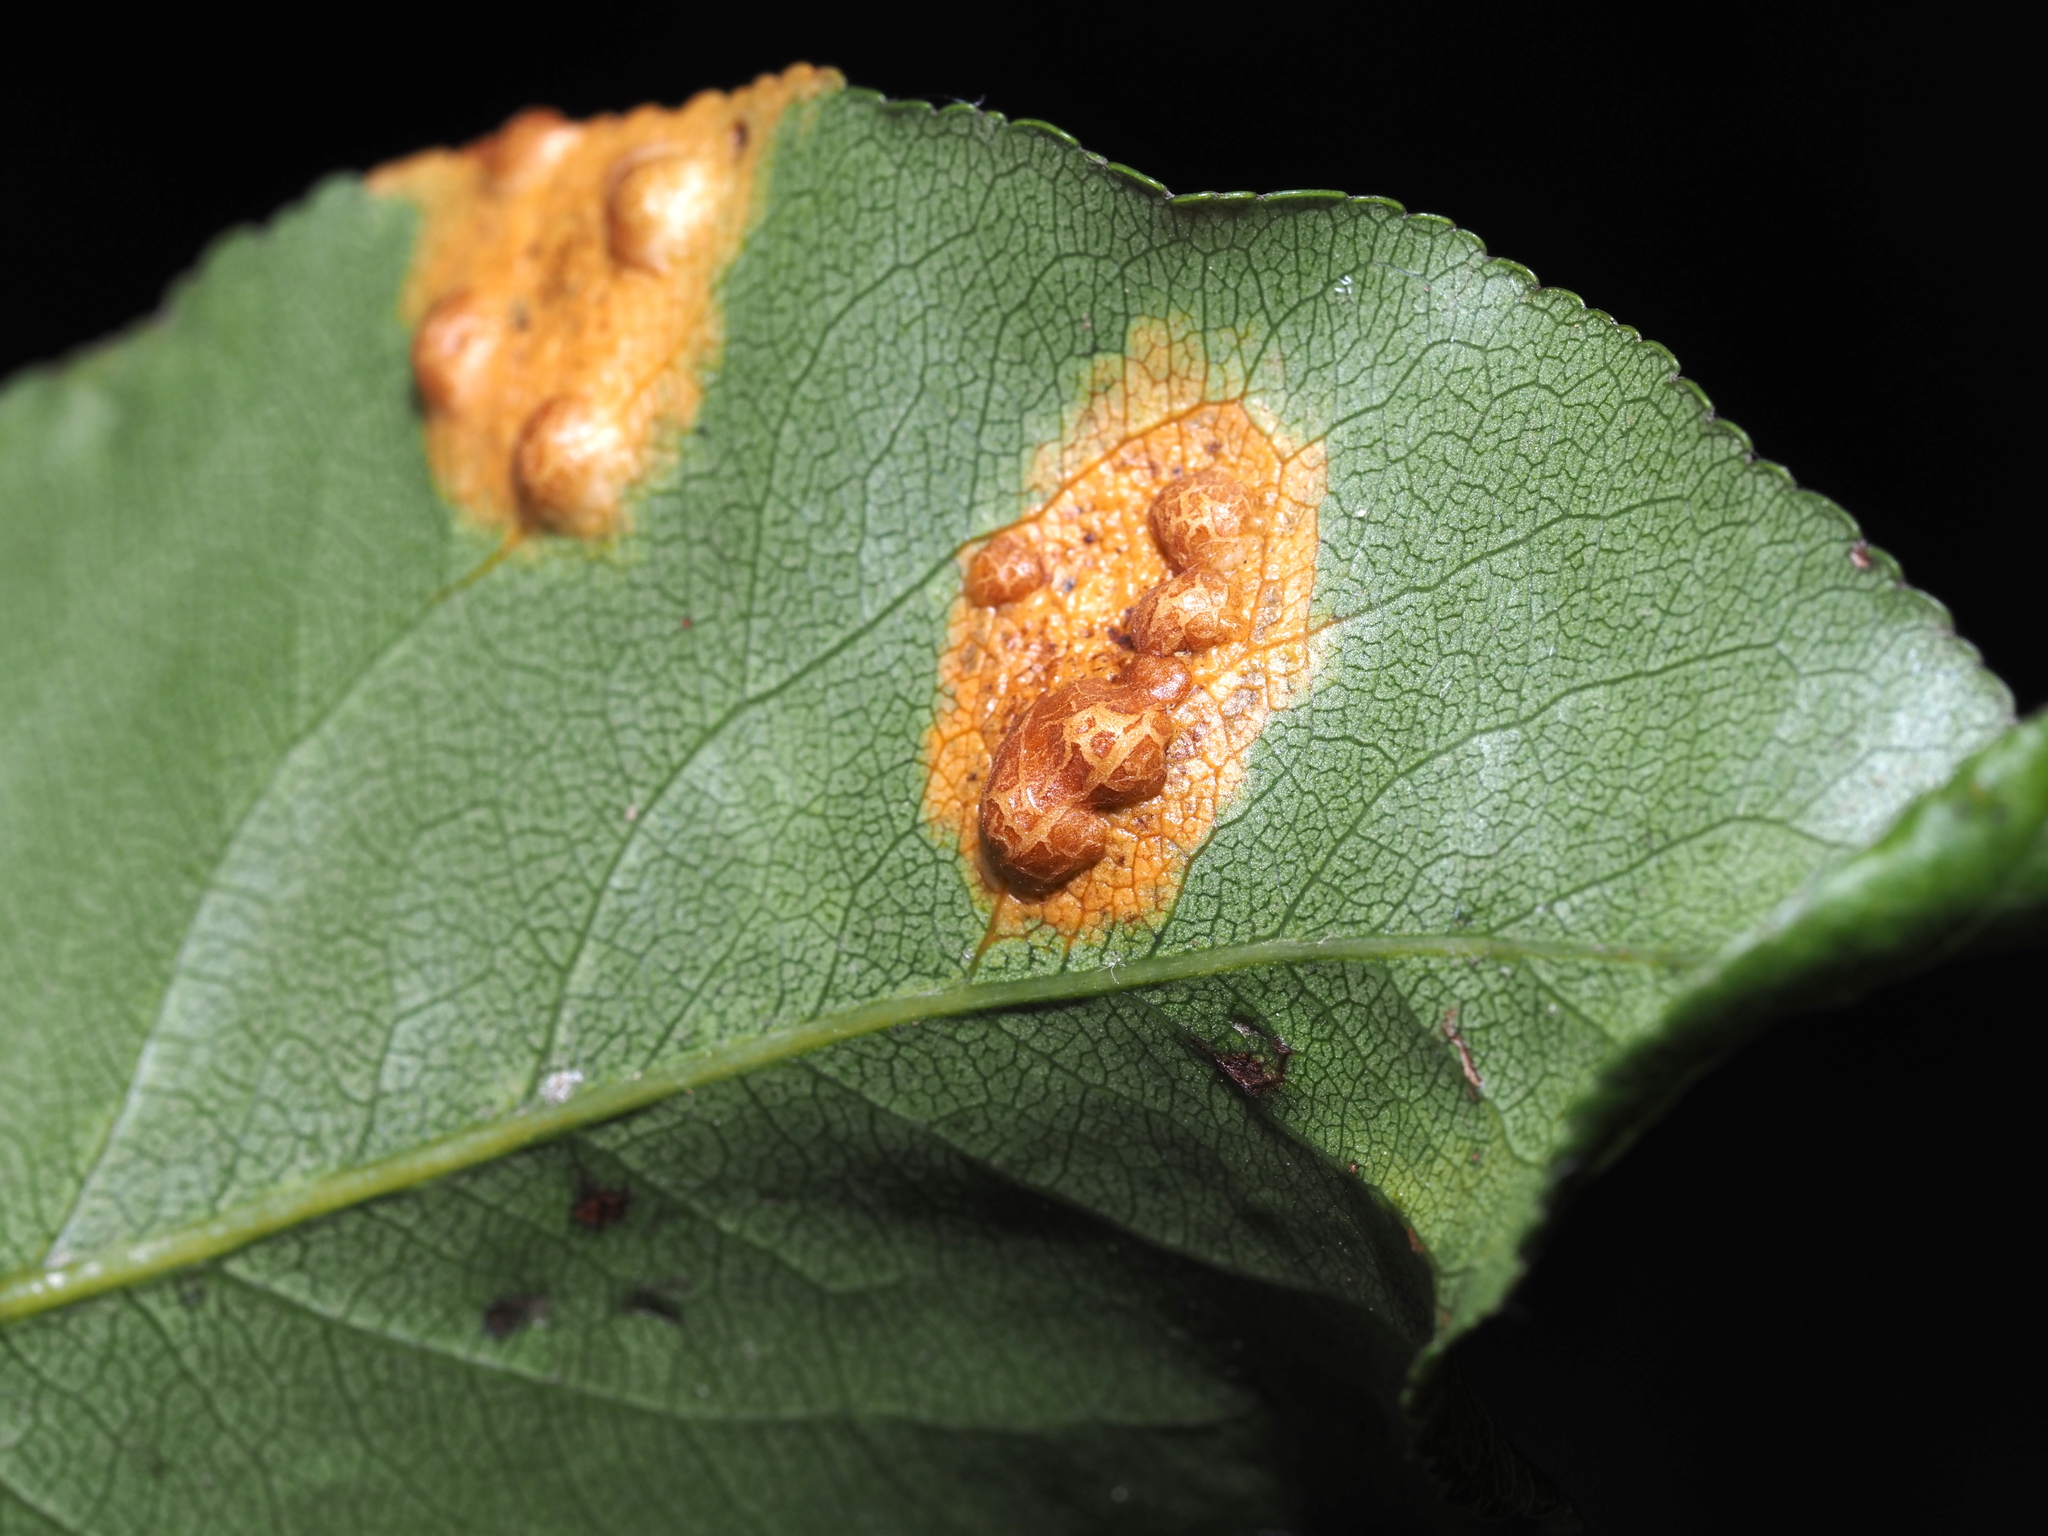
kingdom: Fungi
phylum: Basidiomycota
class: Pucciniomycetes
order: Pucciniales
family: Gymnosporangiaceae
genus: Gymnosporangium
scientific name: Gymnosporangium sabinae
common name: Pear trellis rust fungus
